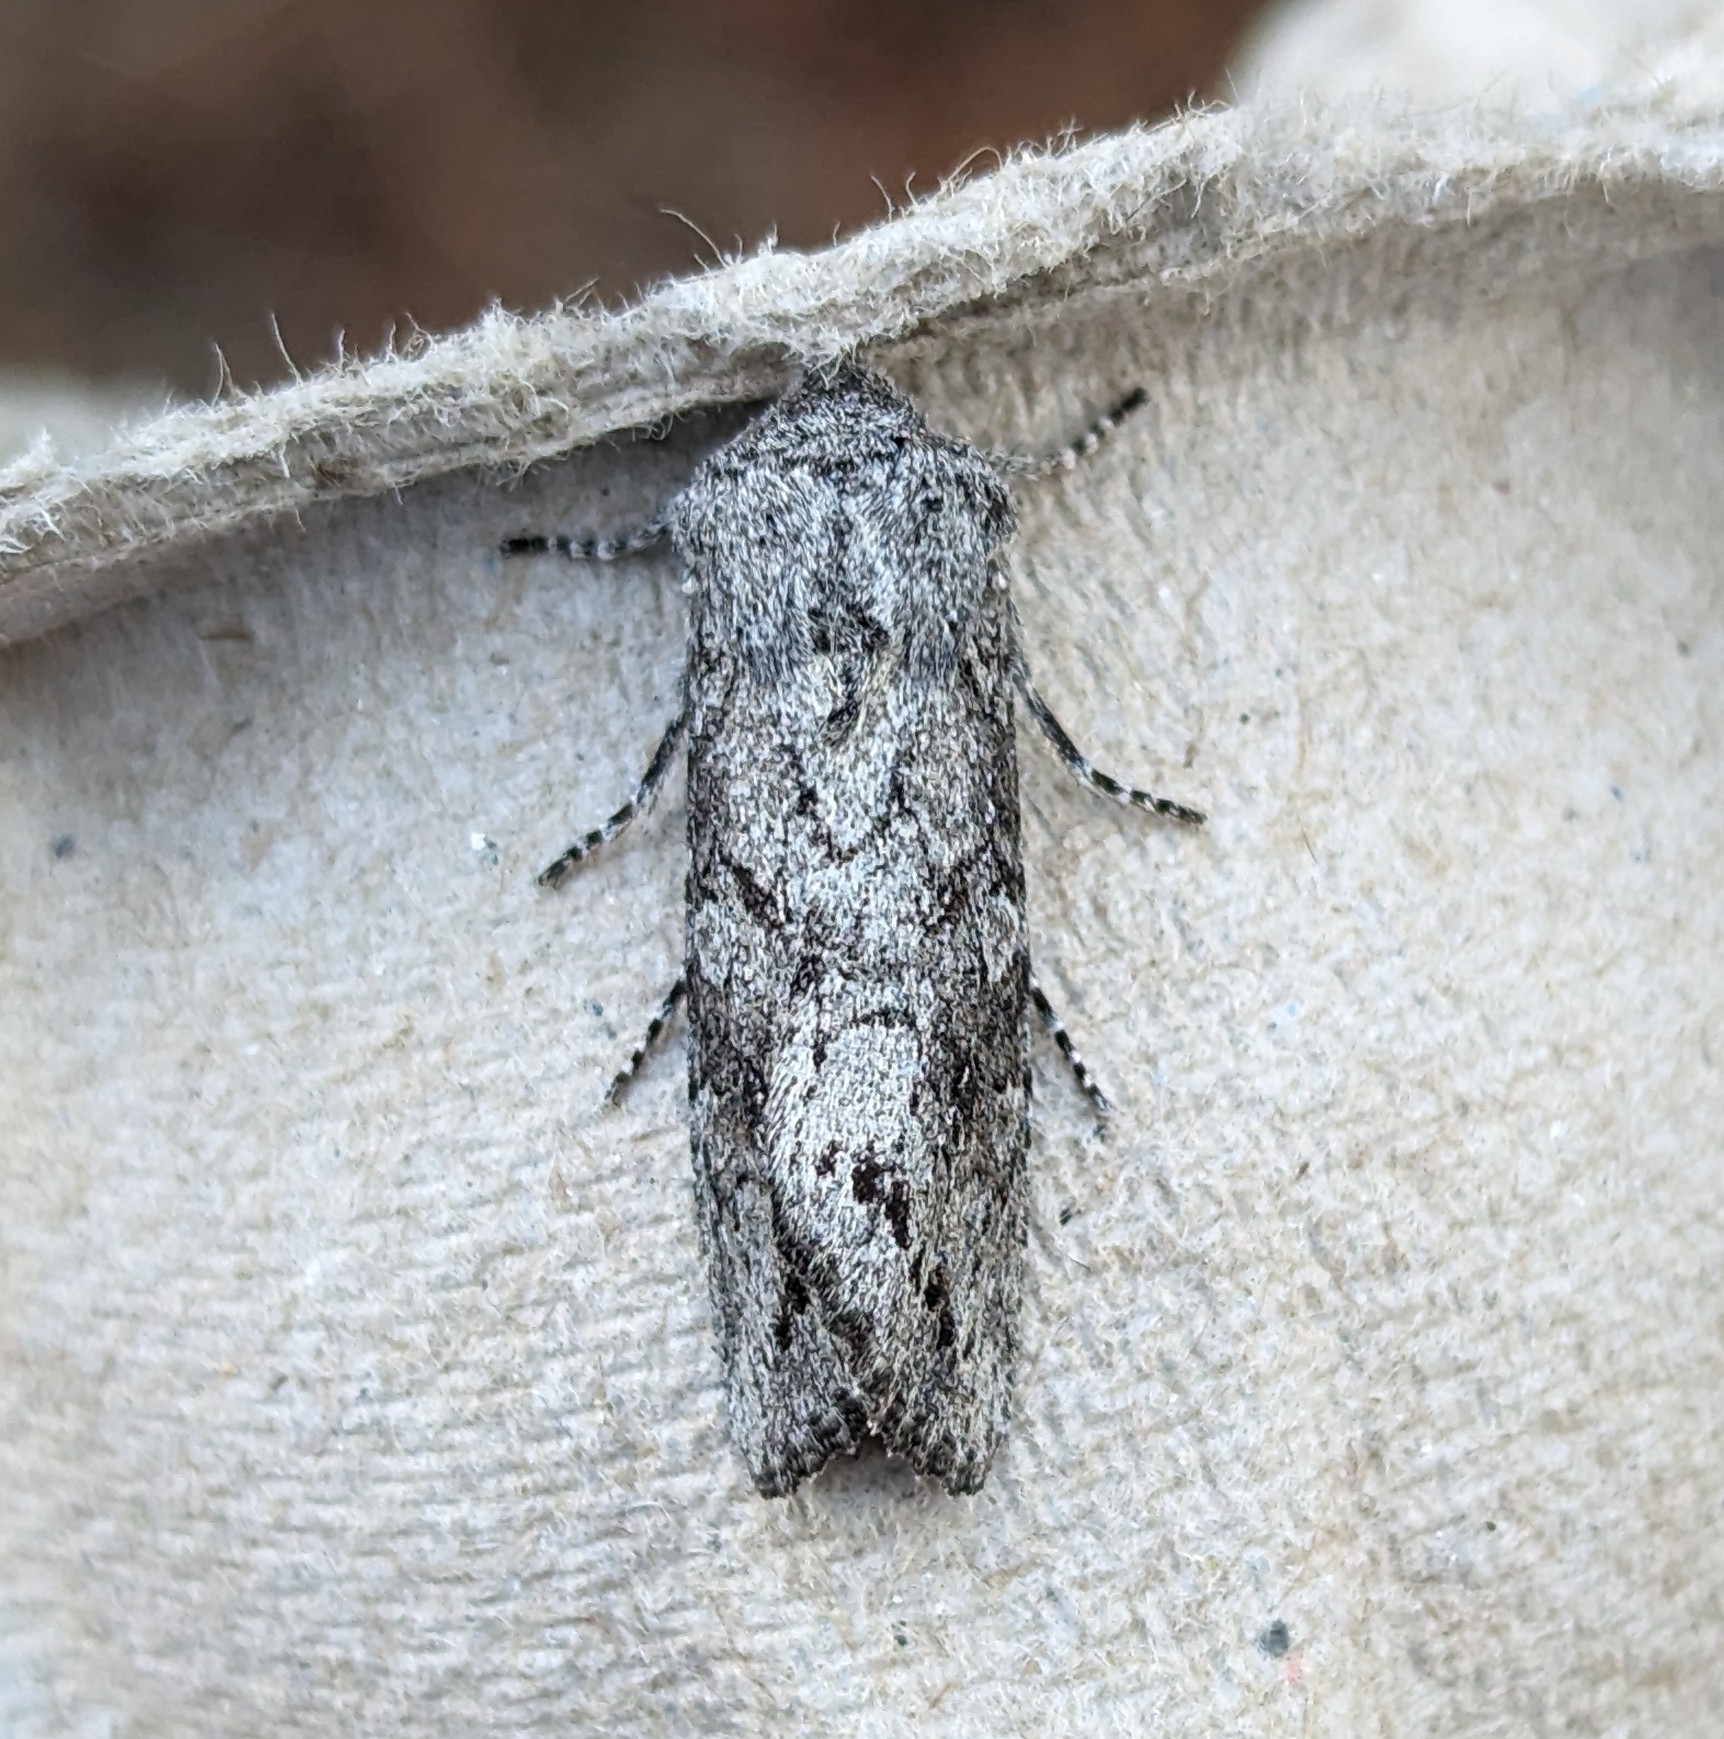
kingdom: Animalia
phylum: Arthropoda
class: Insecta
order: Lepidoptera
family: Noctuidae
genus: Egira
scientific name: Egira curialis
